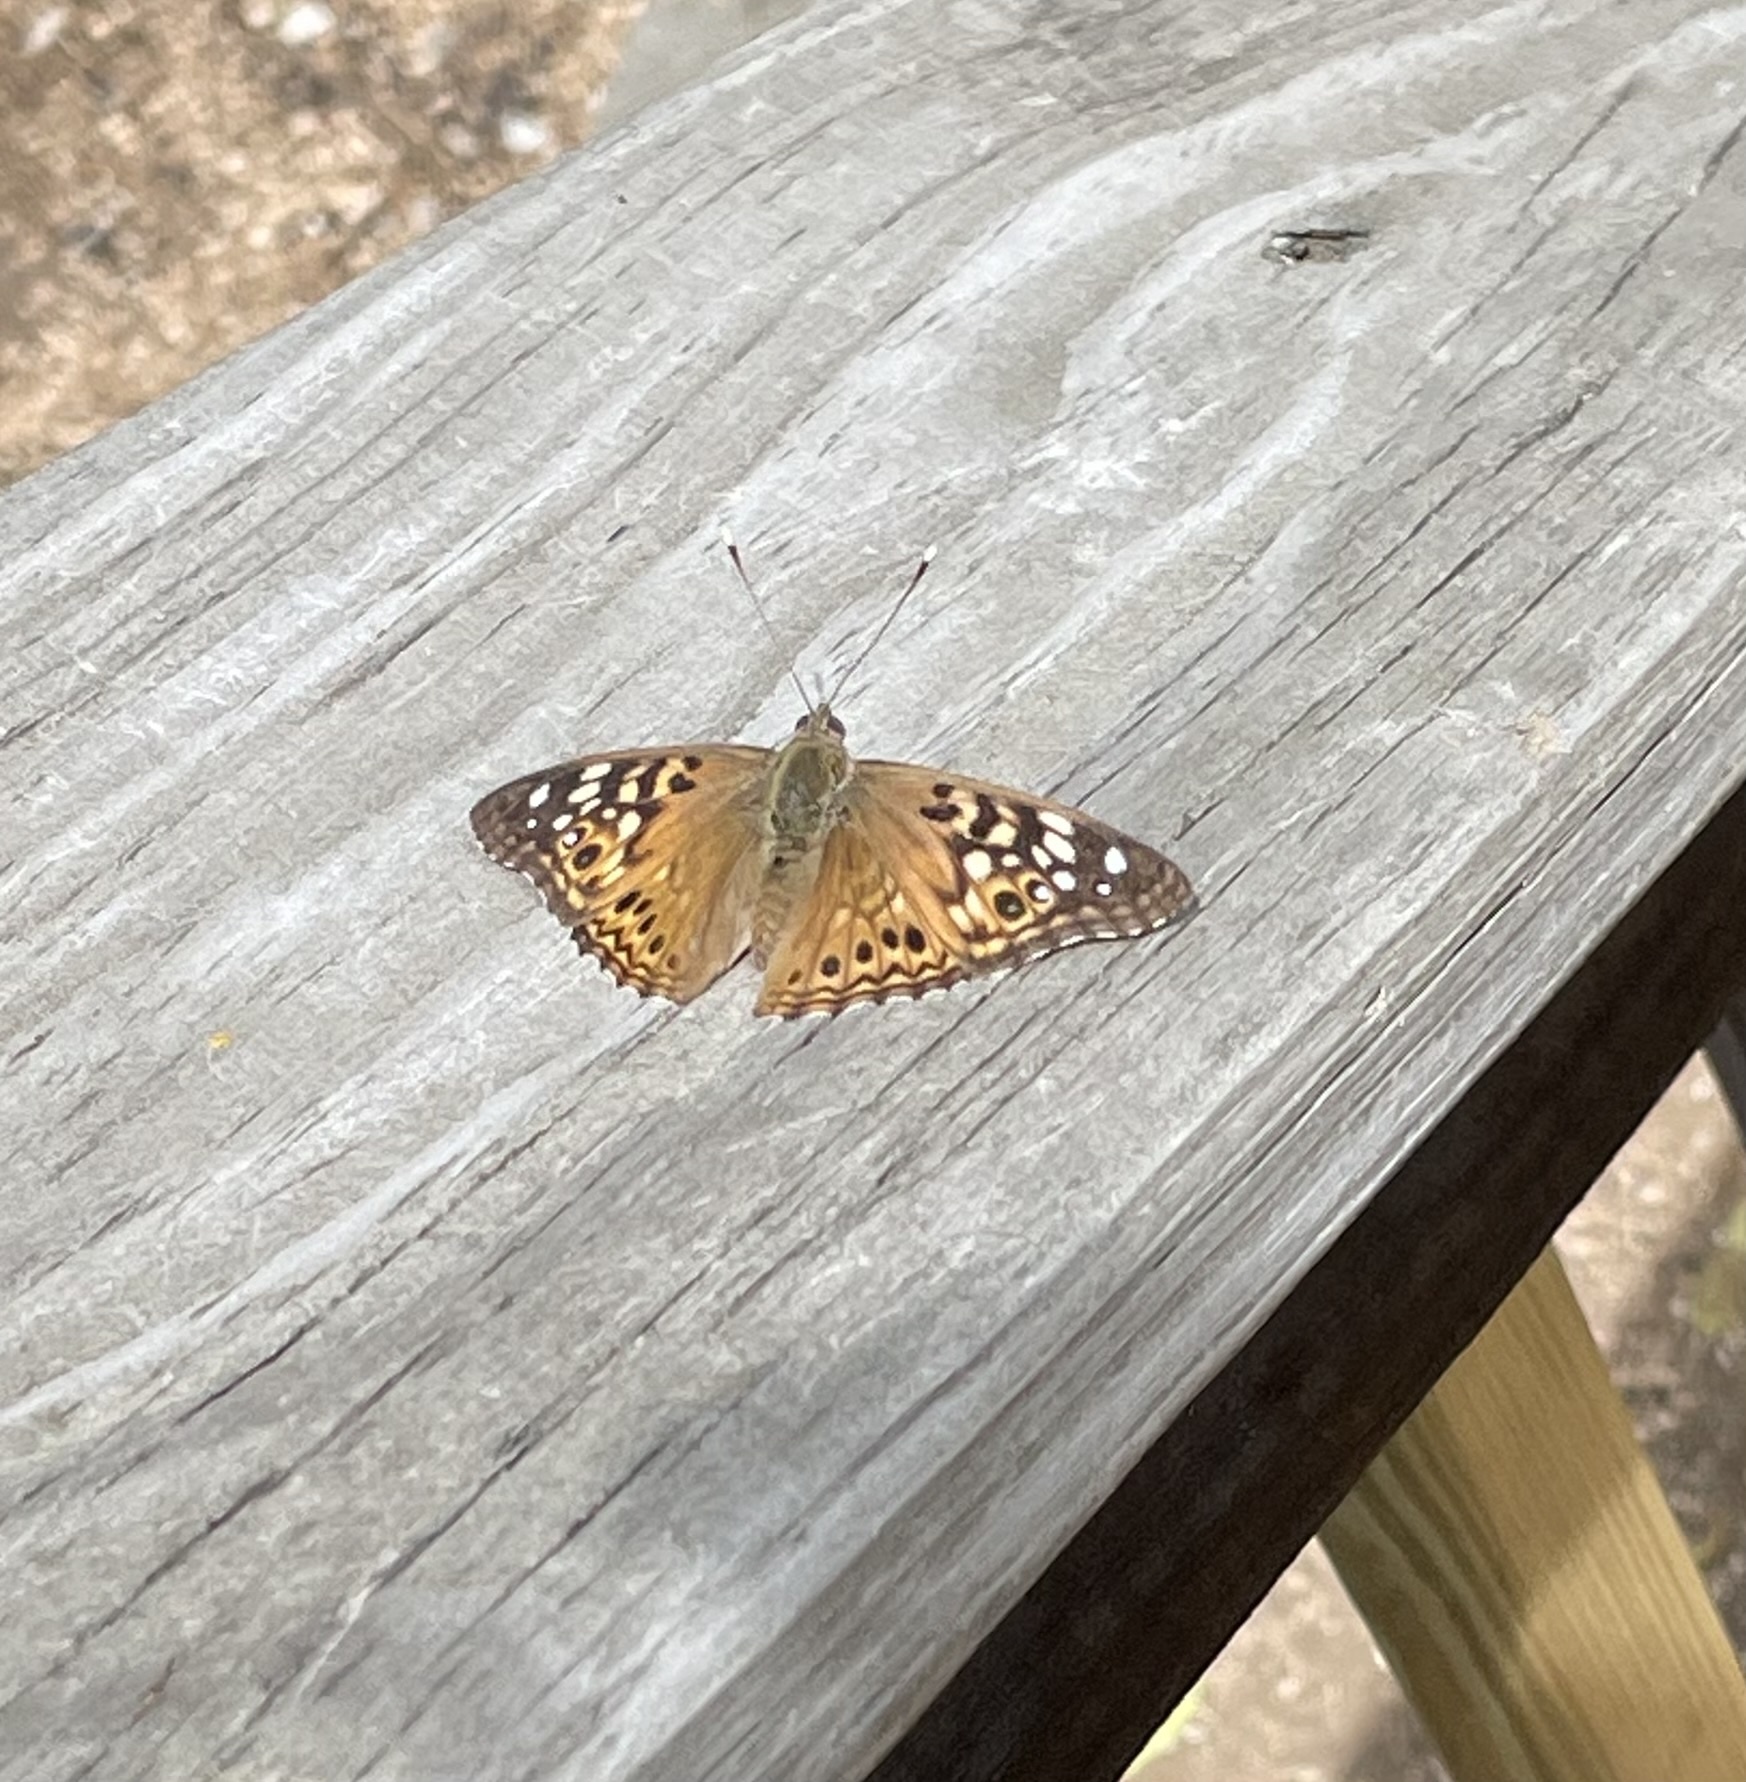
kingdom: Animalia
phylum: Arthropoda
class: Insecta
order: Lepidoptera
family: Nymphalidae
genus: Asterocampa
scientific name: Asterocampa celtis
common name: Hackberry emperor
